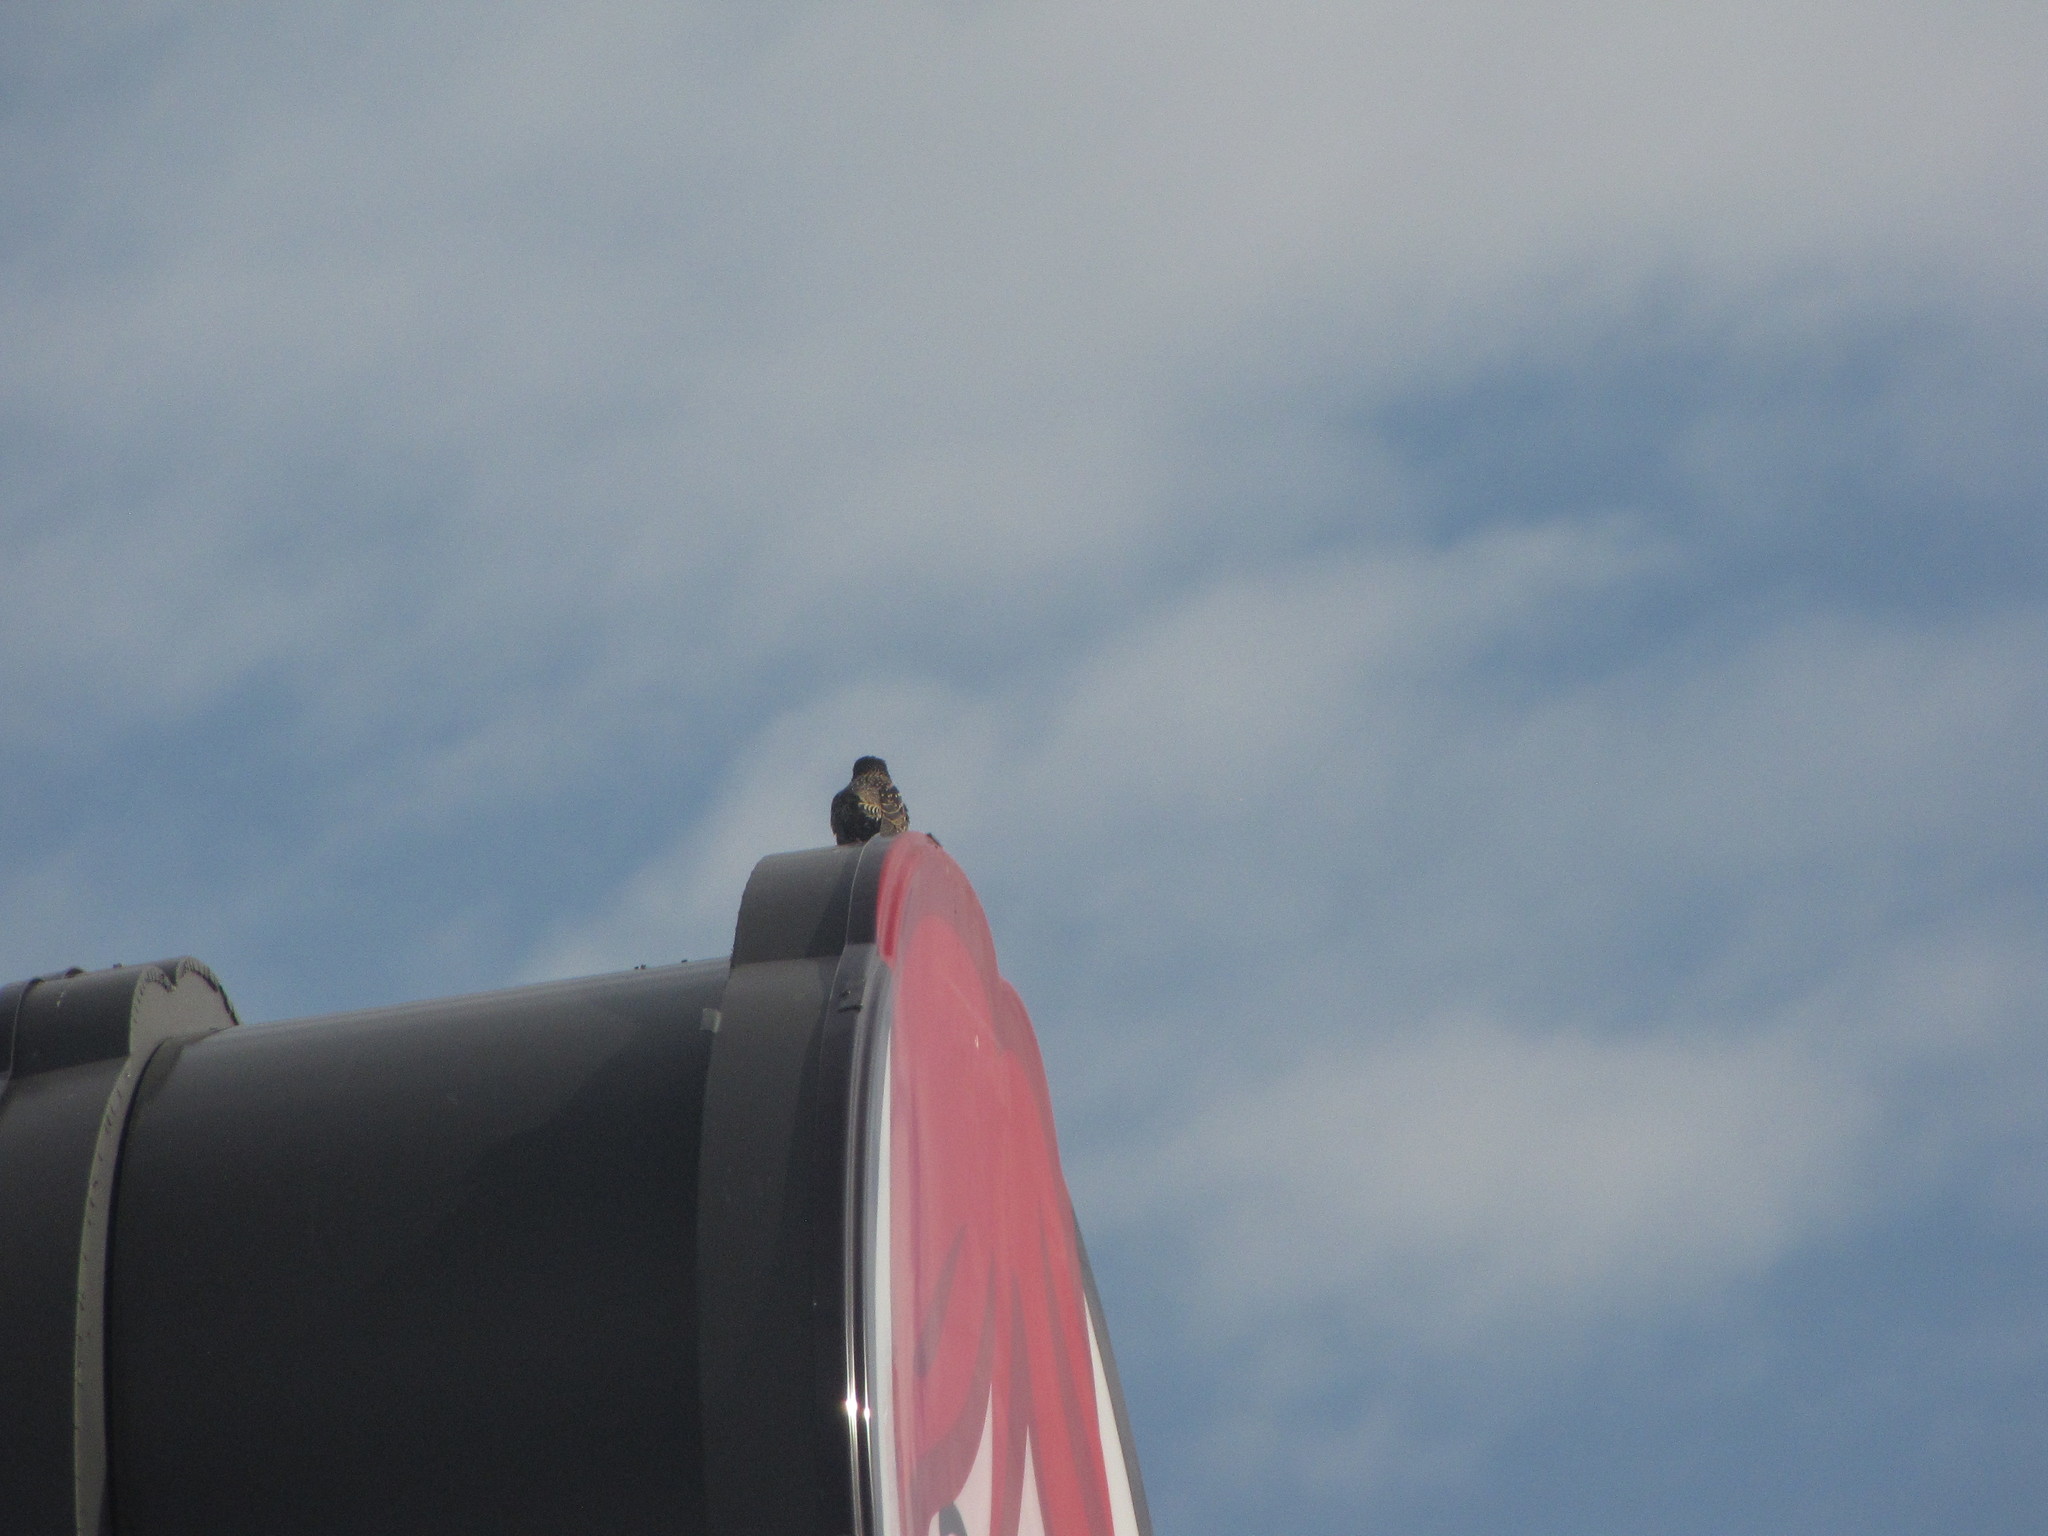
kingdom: Animalia
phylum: Chordata
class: Aves
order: Passeriformes
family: Sturnidae
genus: Sturnus
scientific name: Sturnus vulgaris
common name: Common starling
